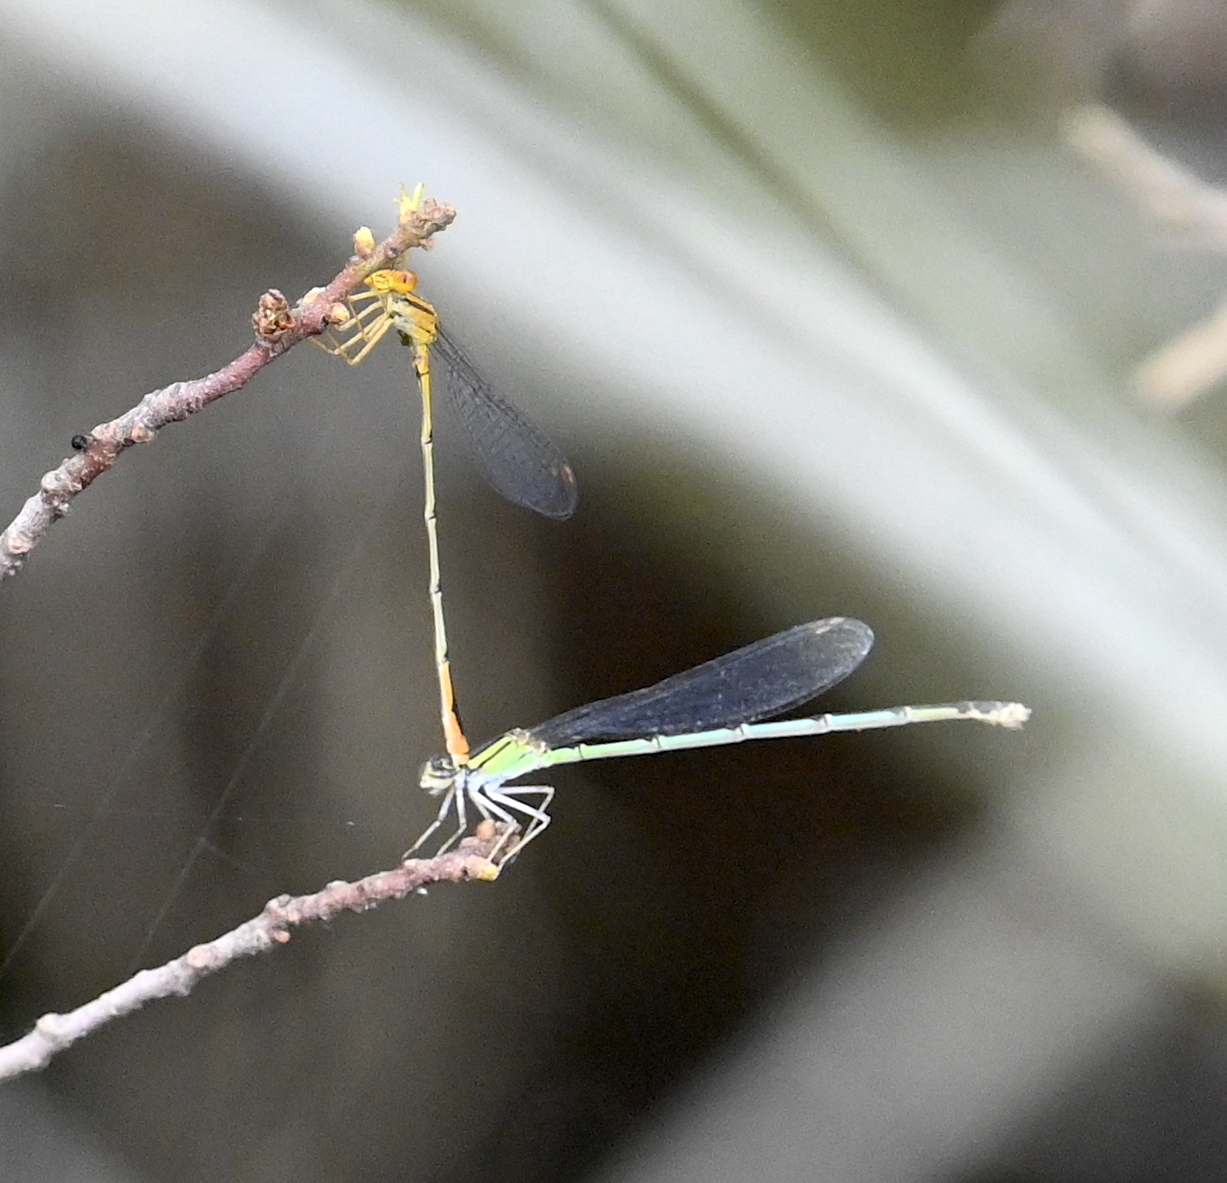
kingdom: Animalia
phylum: Arthropoda
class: Insecta
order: Odonata
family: Coenagrionidae
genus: Enallagma
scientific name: Enallagma signatum
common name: Orange bluet
